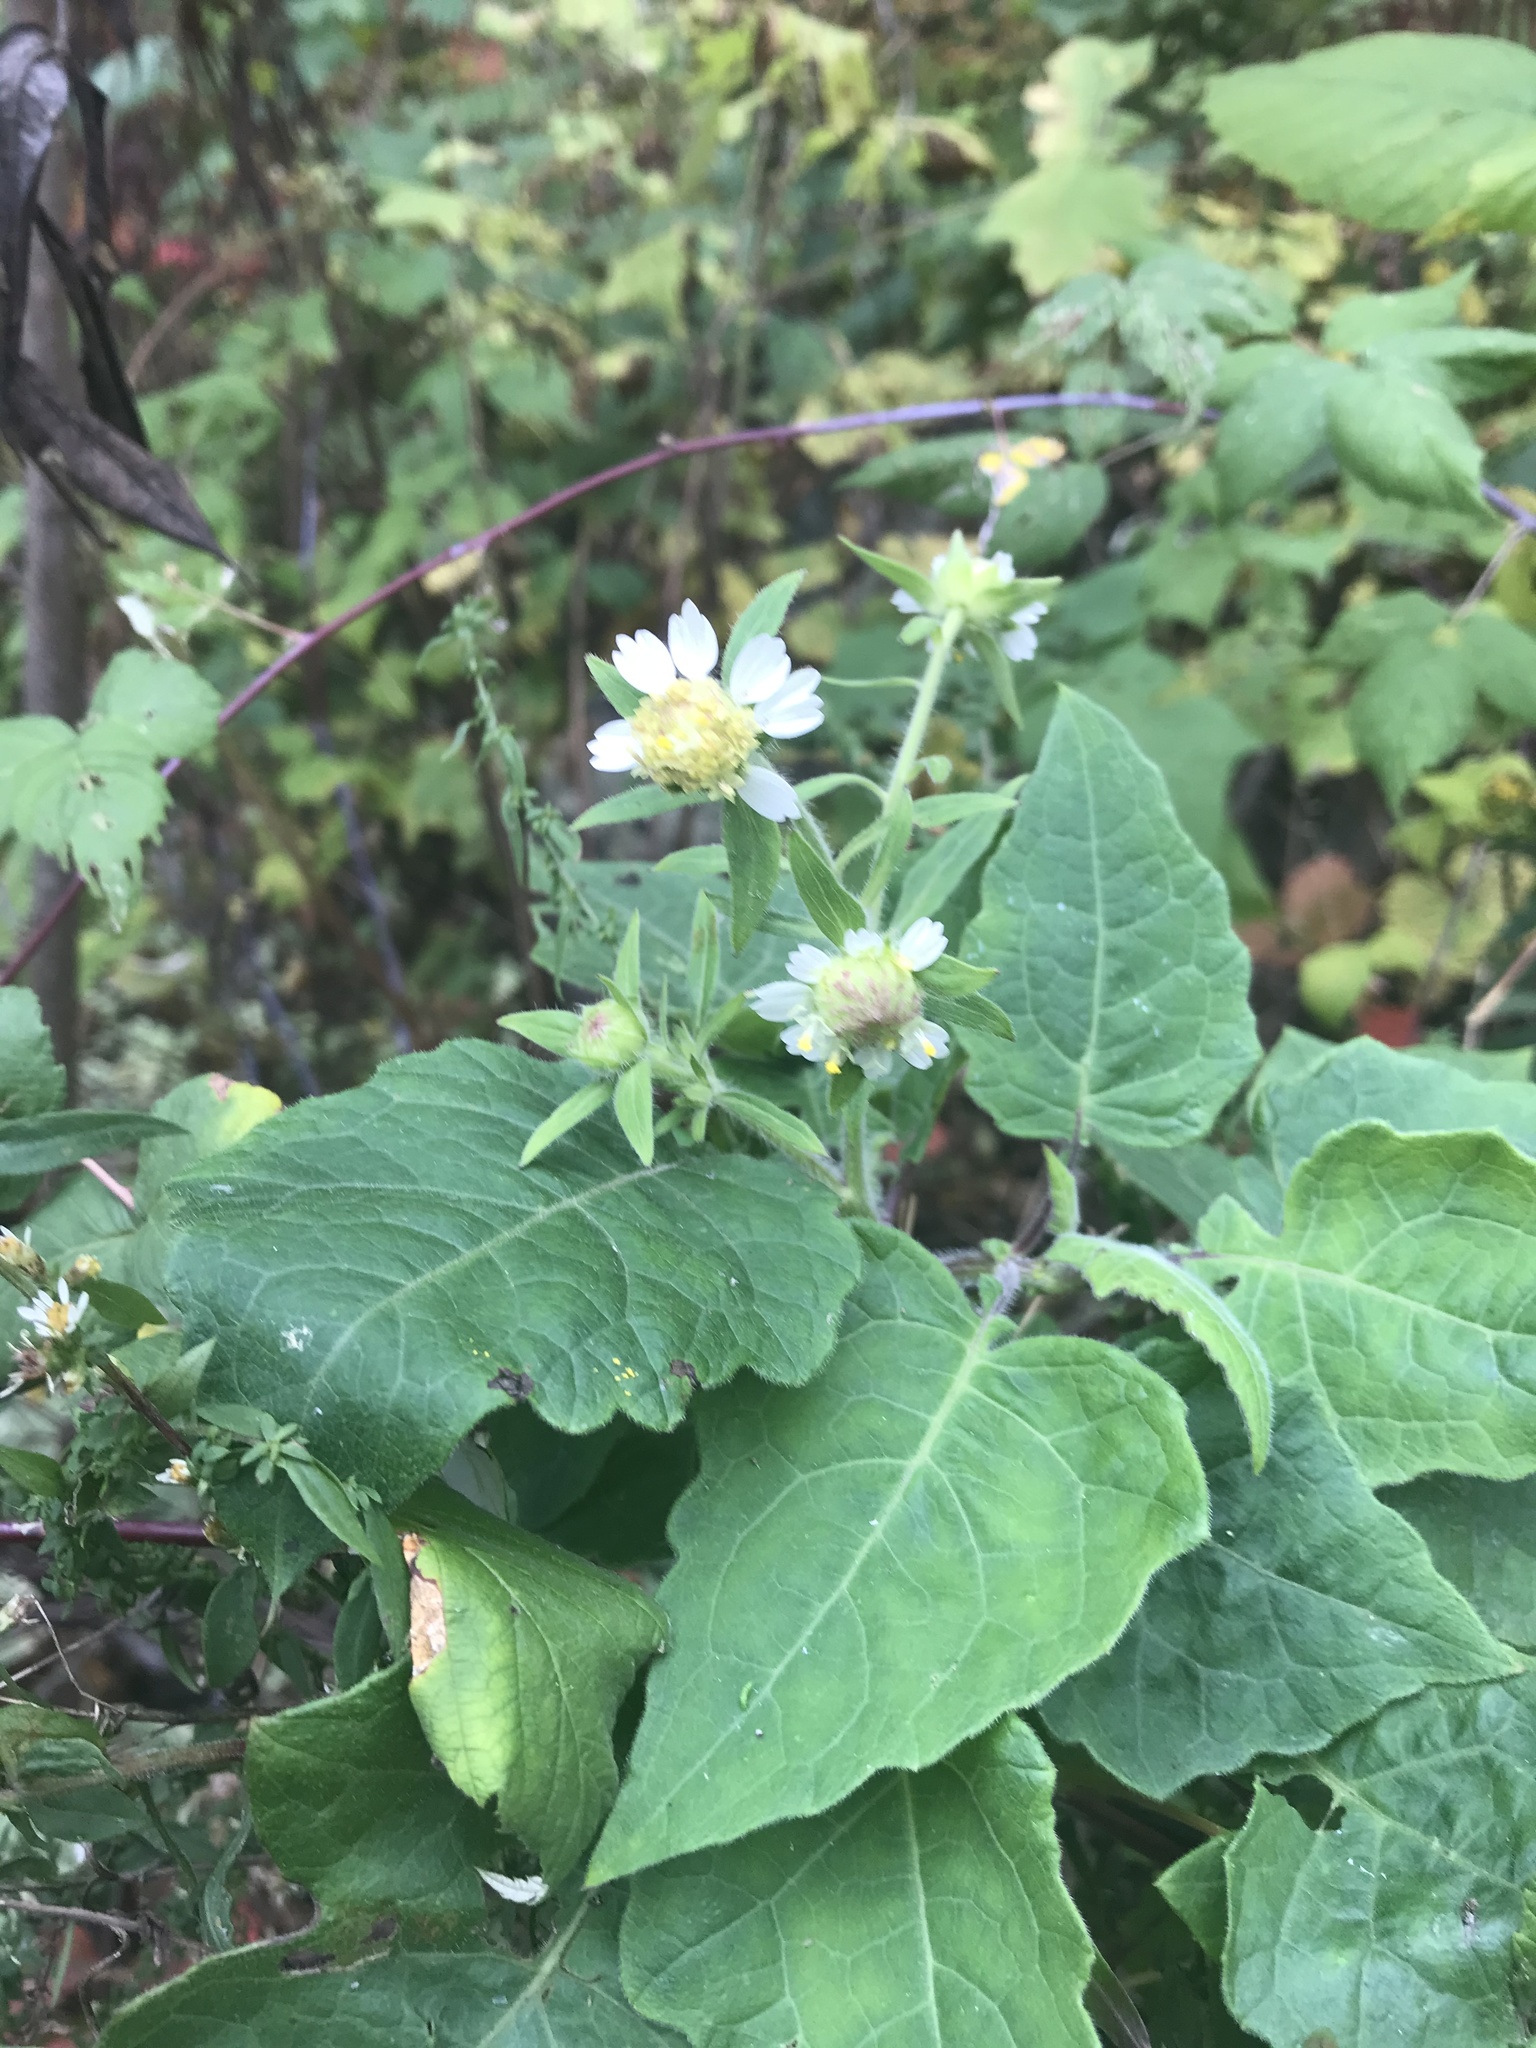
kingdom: Plantae
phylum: Tracheophyta
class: Magnoliopsida
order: Asterales
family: Asteraceae
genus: Polymnia
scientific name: Polymnia canadensis
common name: Pale-flowered leafcup
